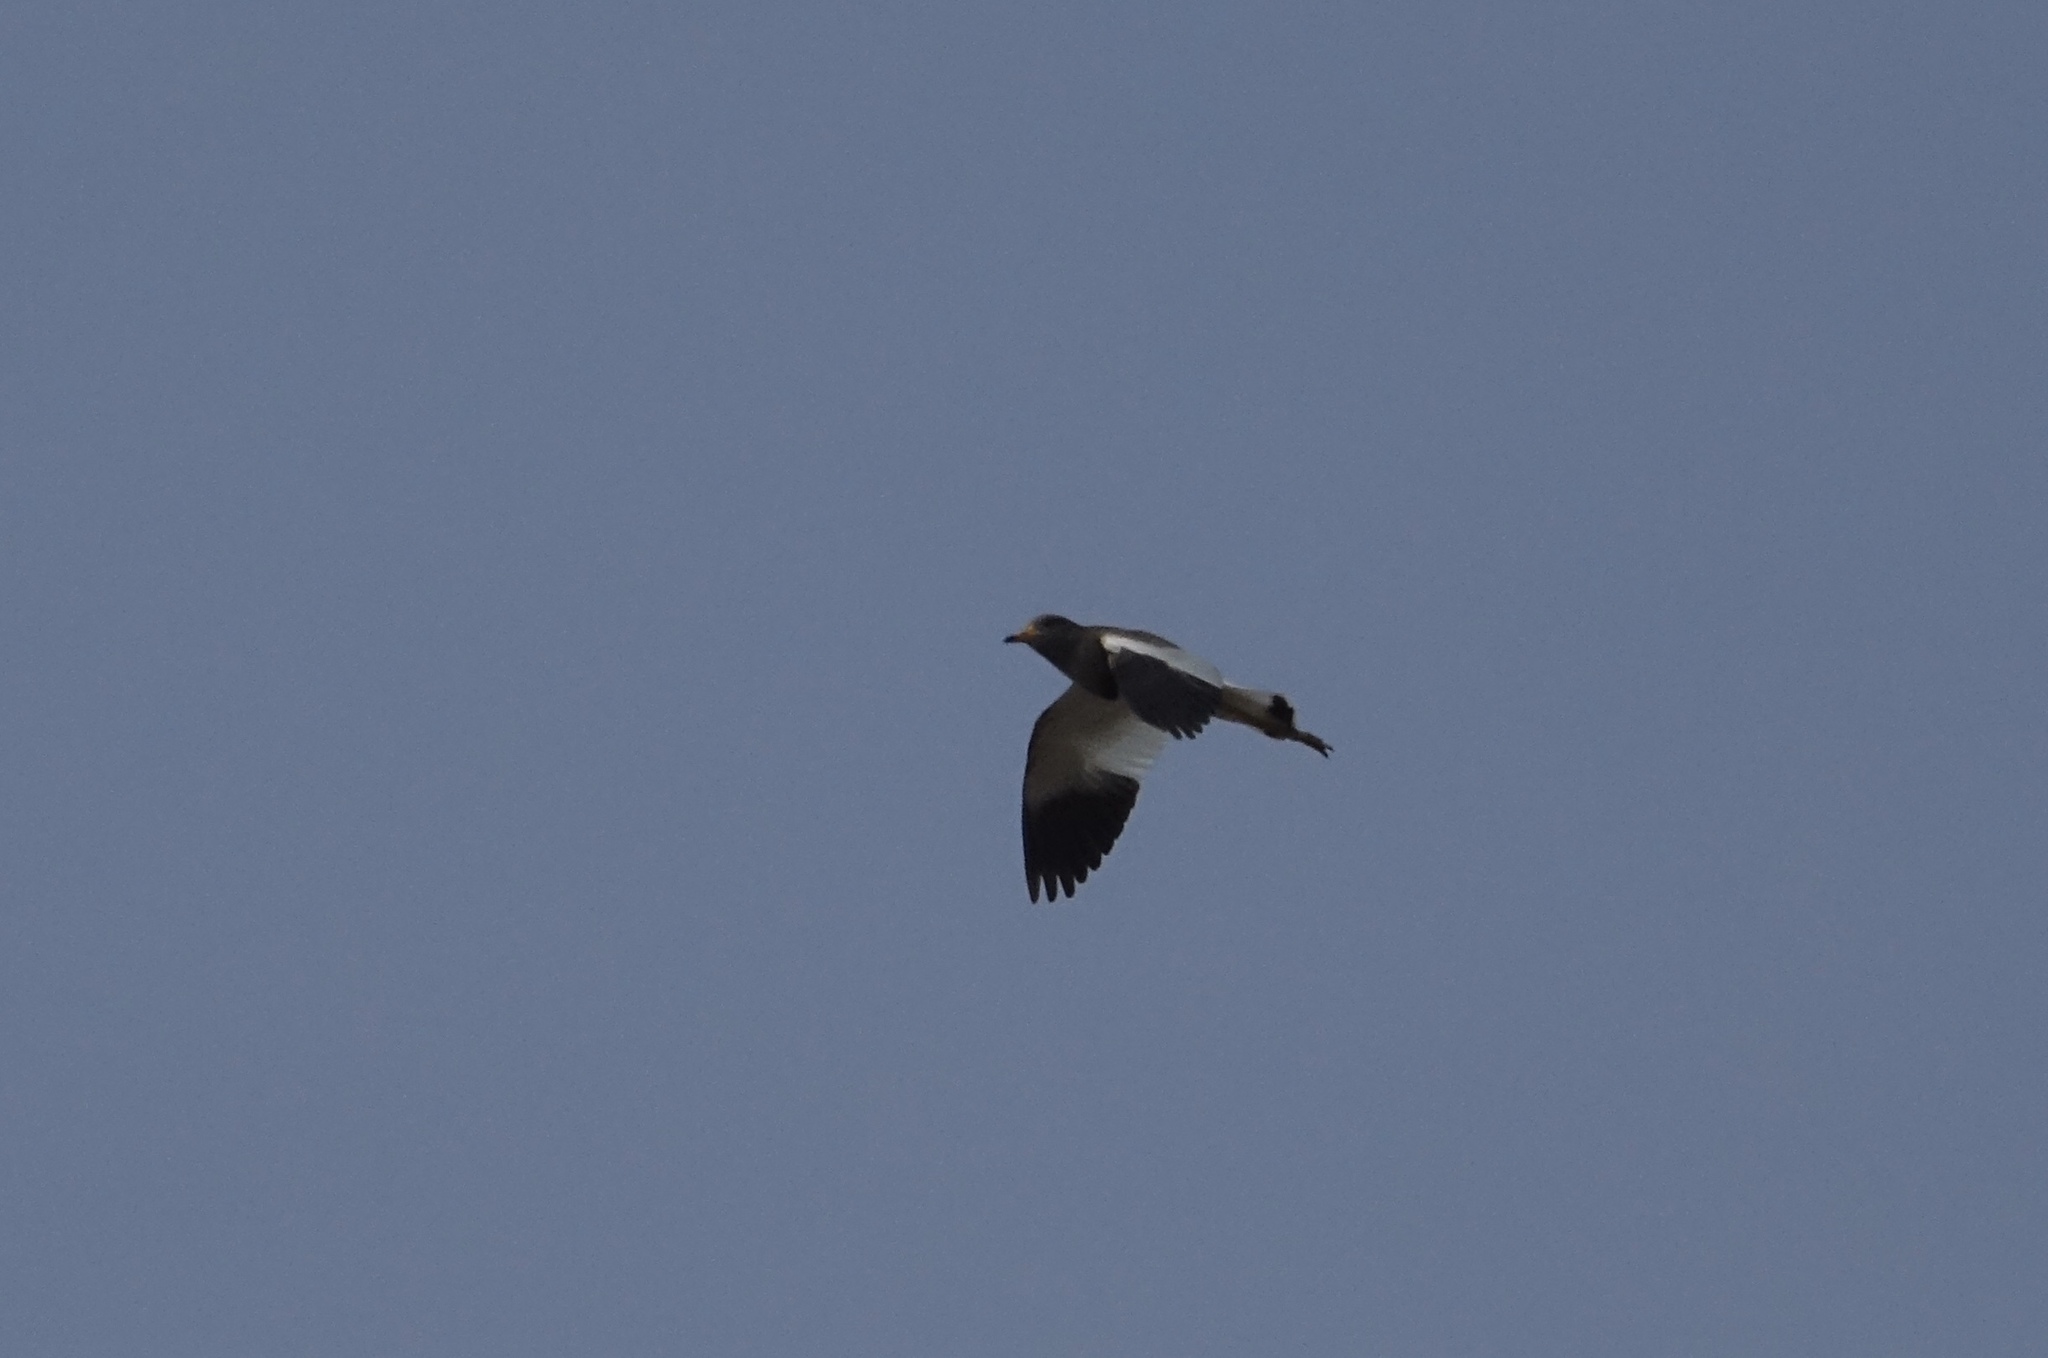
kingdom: Animalia
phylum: Chordata
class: Aves
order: Charadriiformes
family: Charadriidae
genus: Vanellus
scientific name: Vanellus cinereus
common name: Grey-headed lapwing
